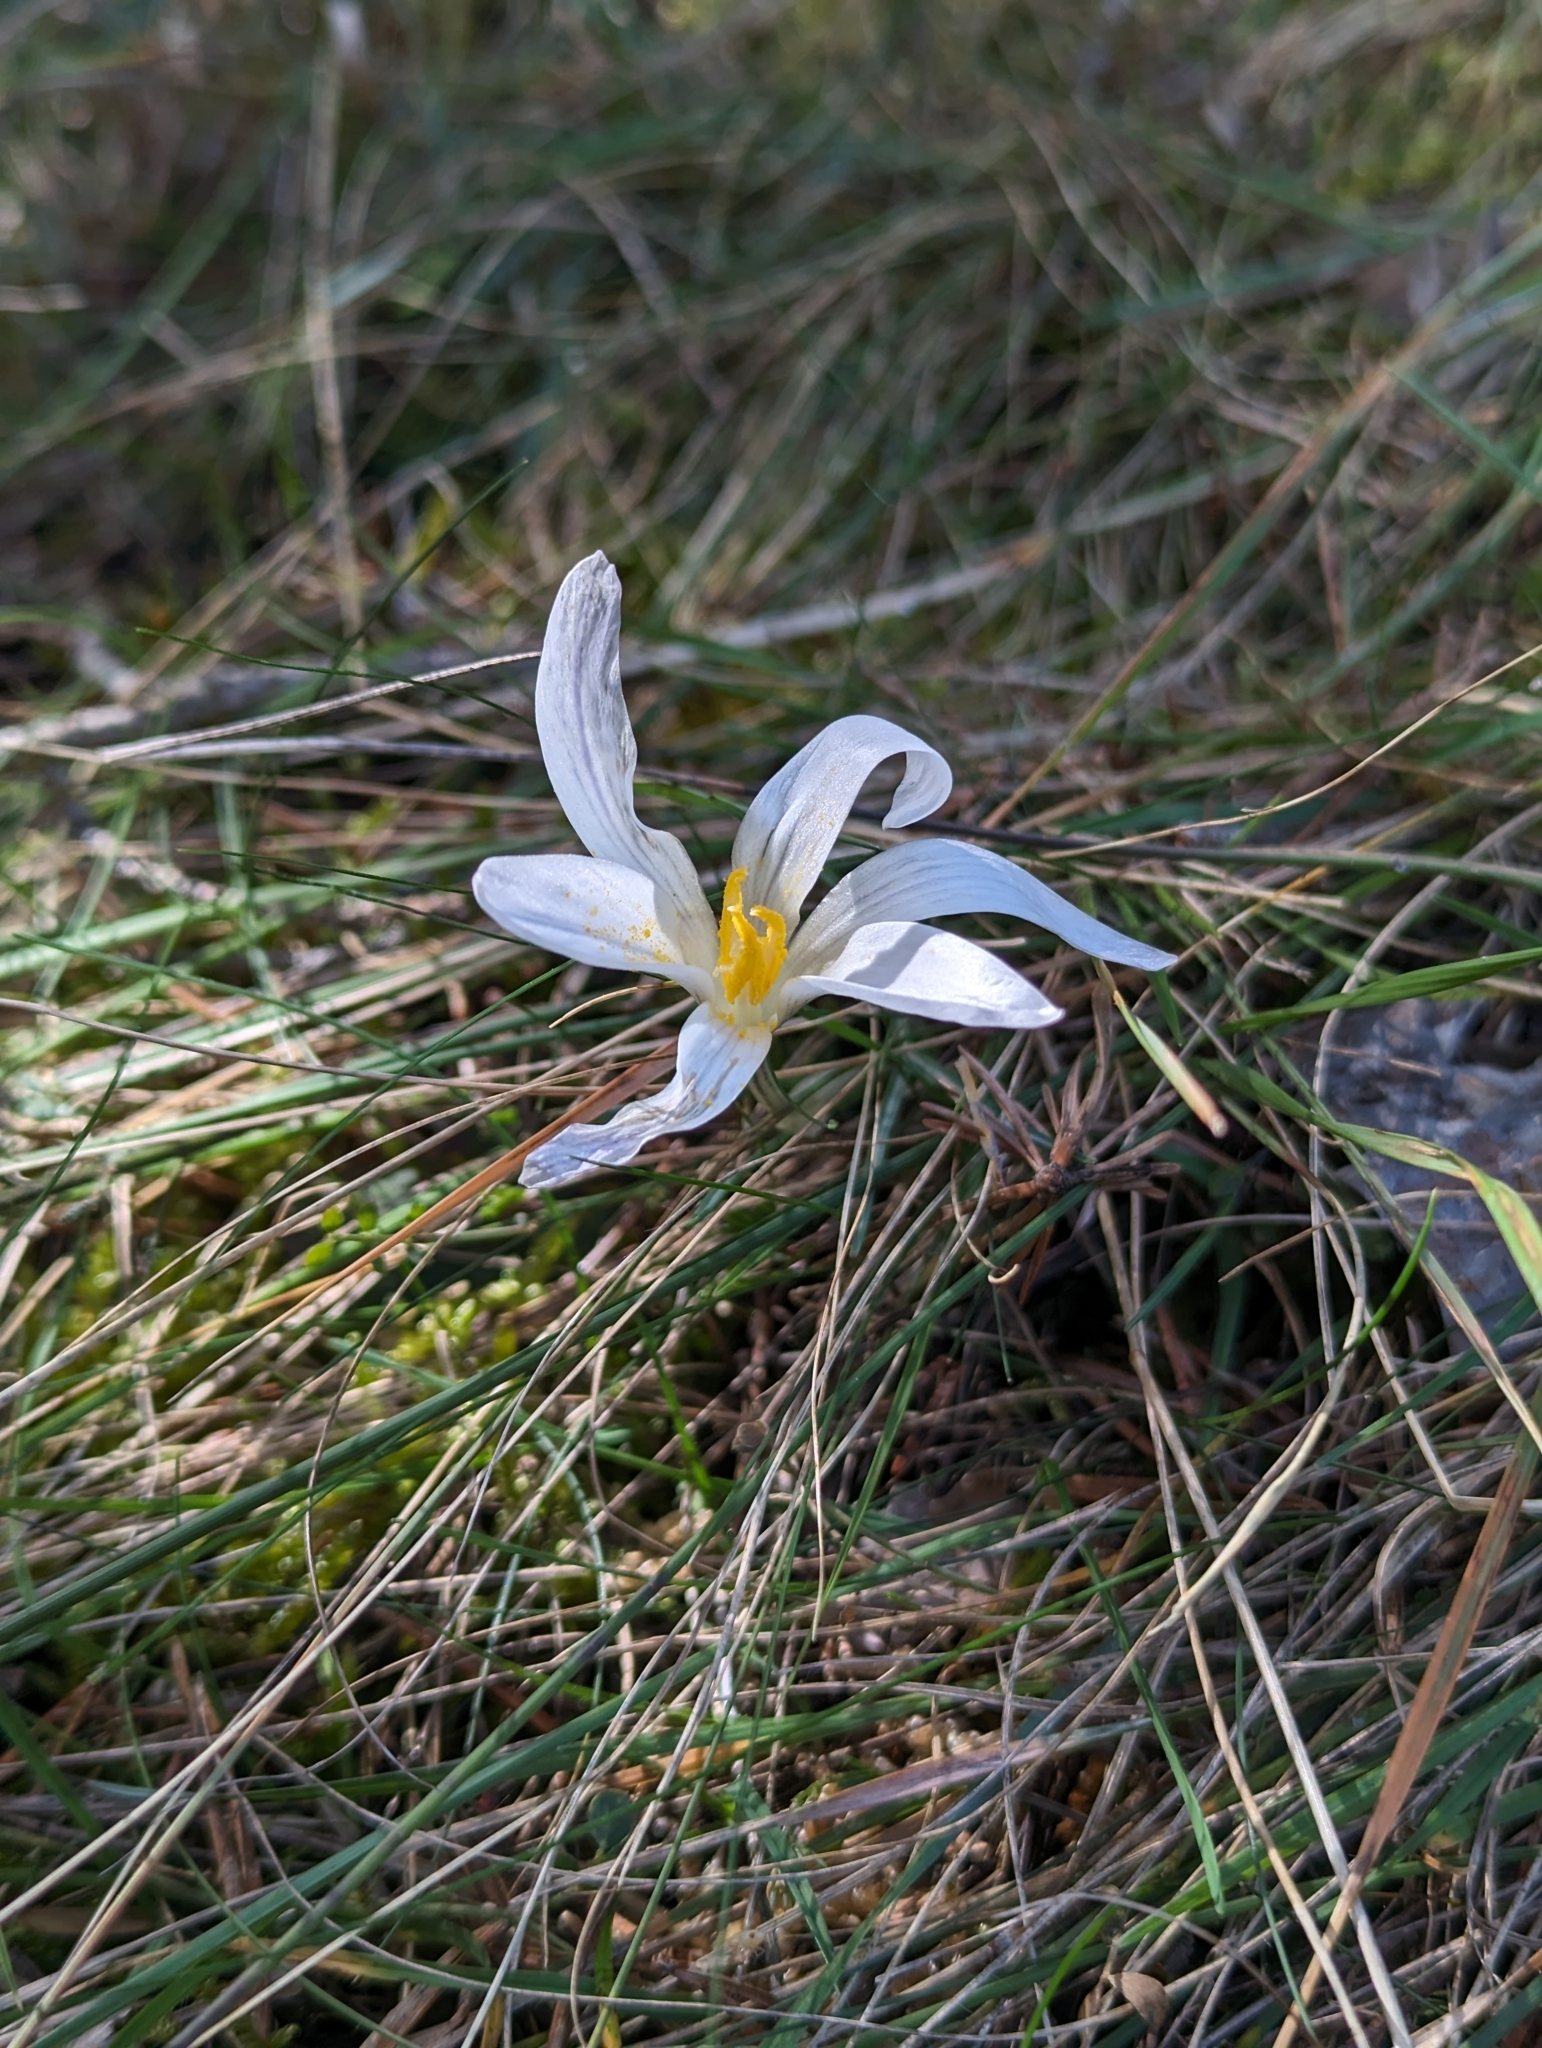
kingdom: Plantae
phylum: Tracheophyta
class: Liliopsida
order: Asparagales
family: Iridaceae
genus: Crocus
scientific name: Crocus nevadensis
